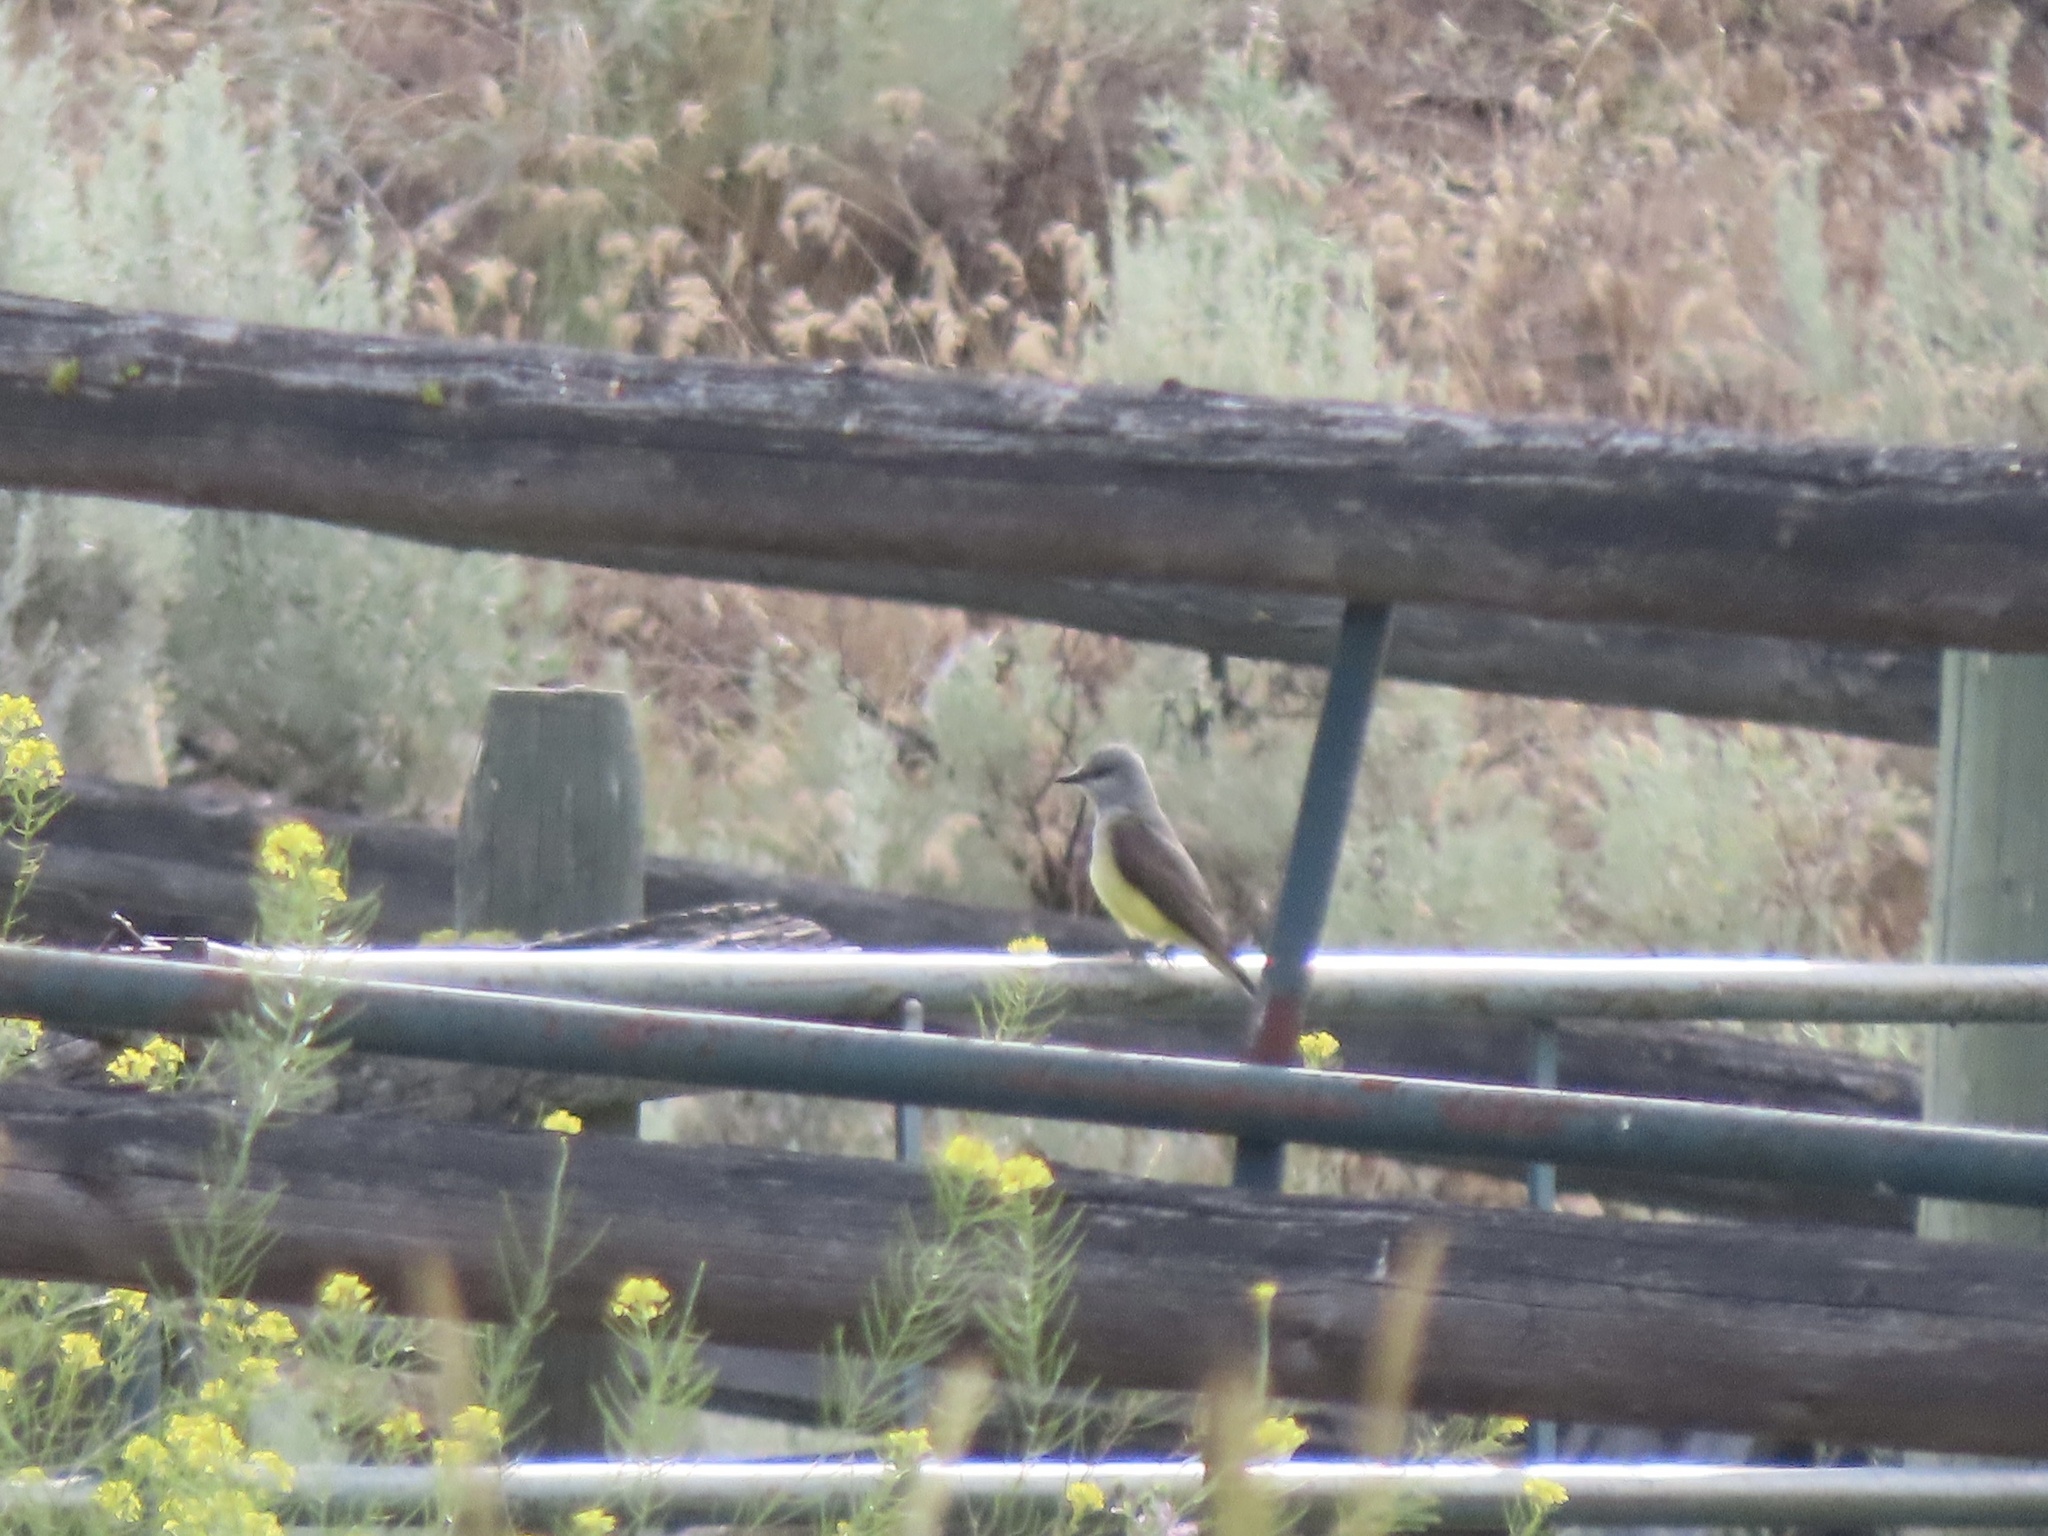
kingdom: Animalia
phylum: Chordata
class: Aves
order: Passeriformes
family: Tyrannidae
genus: Tyrannus
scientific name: Tyrannus verticalis
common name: Western kingbird
